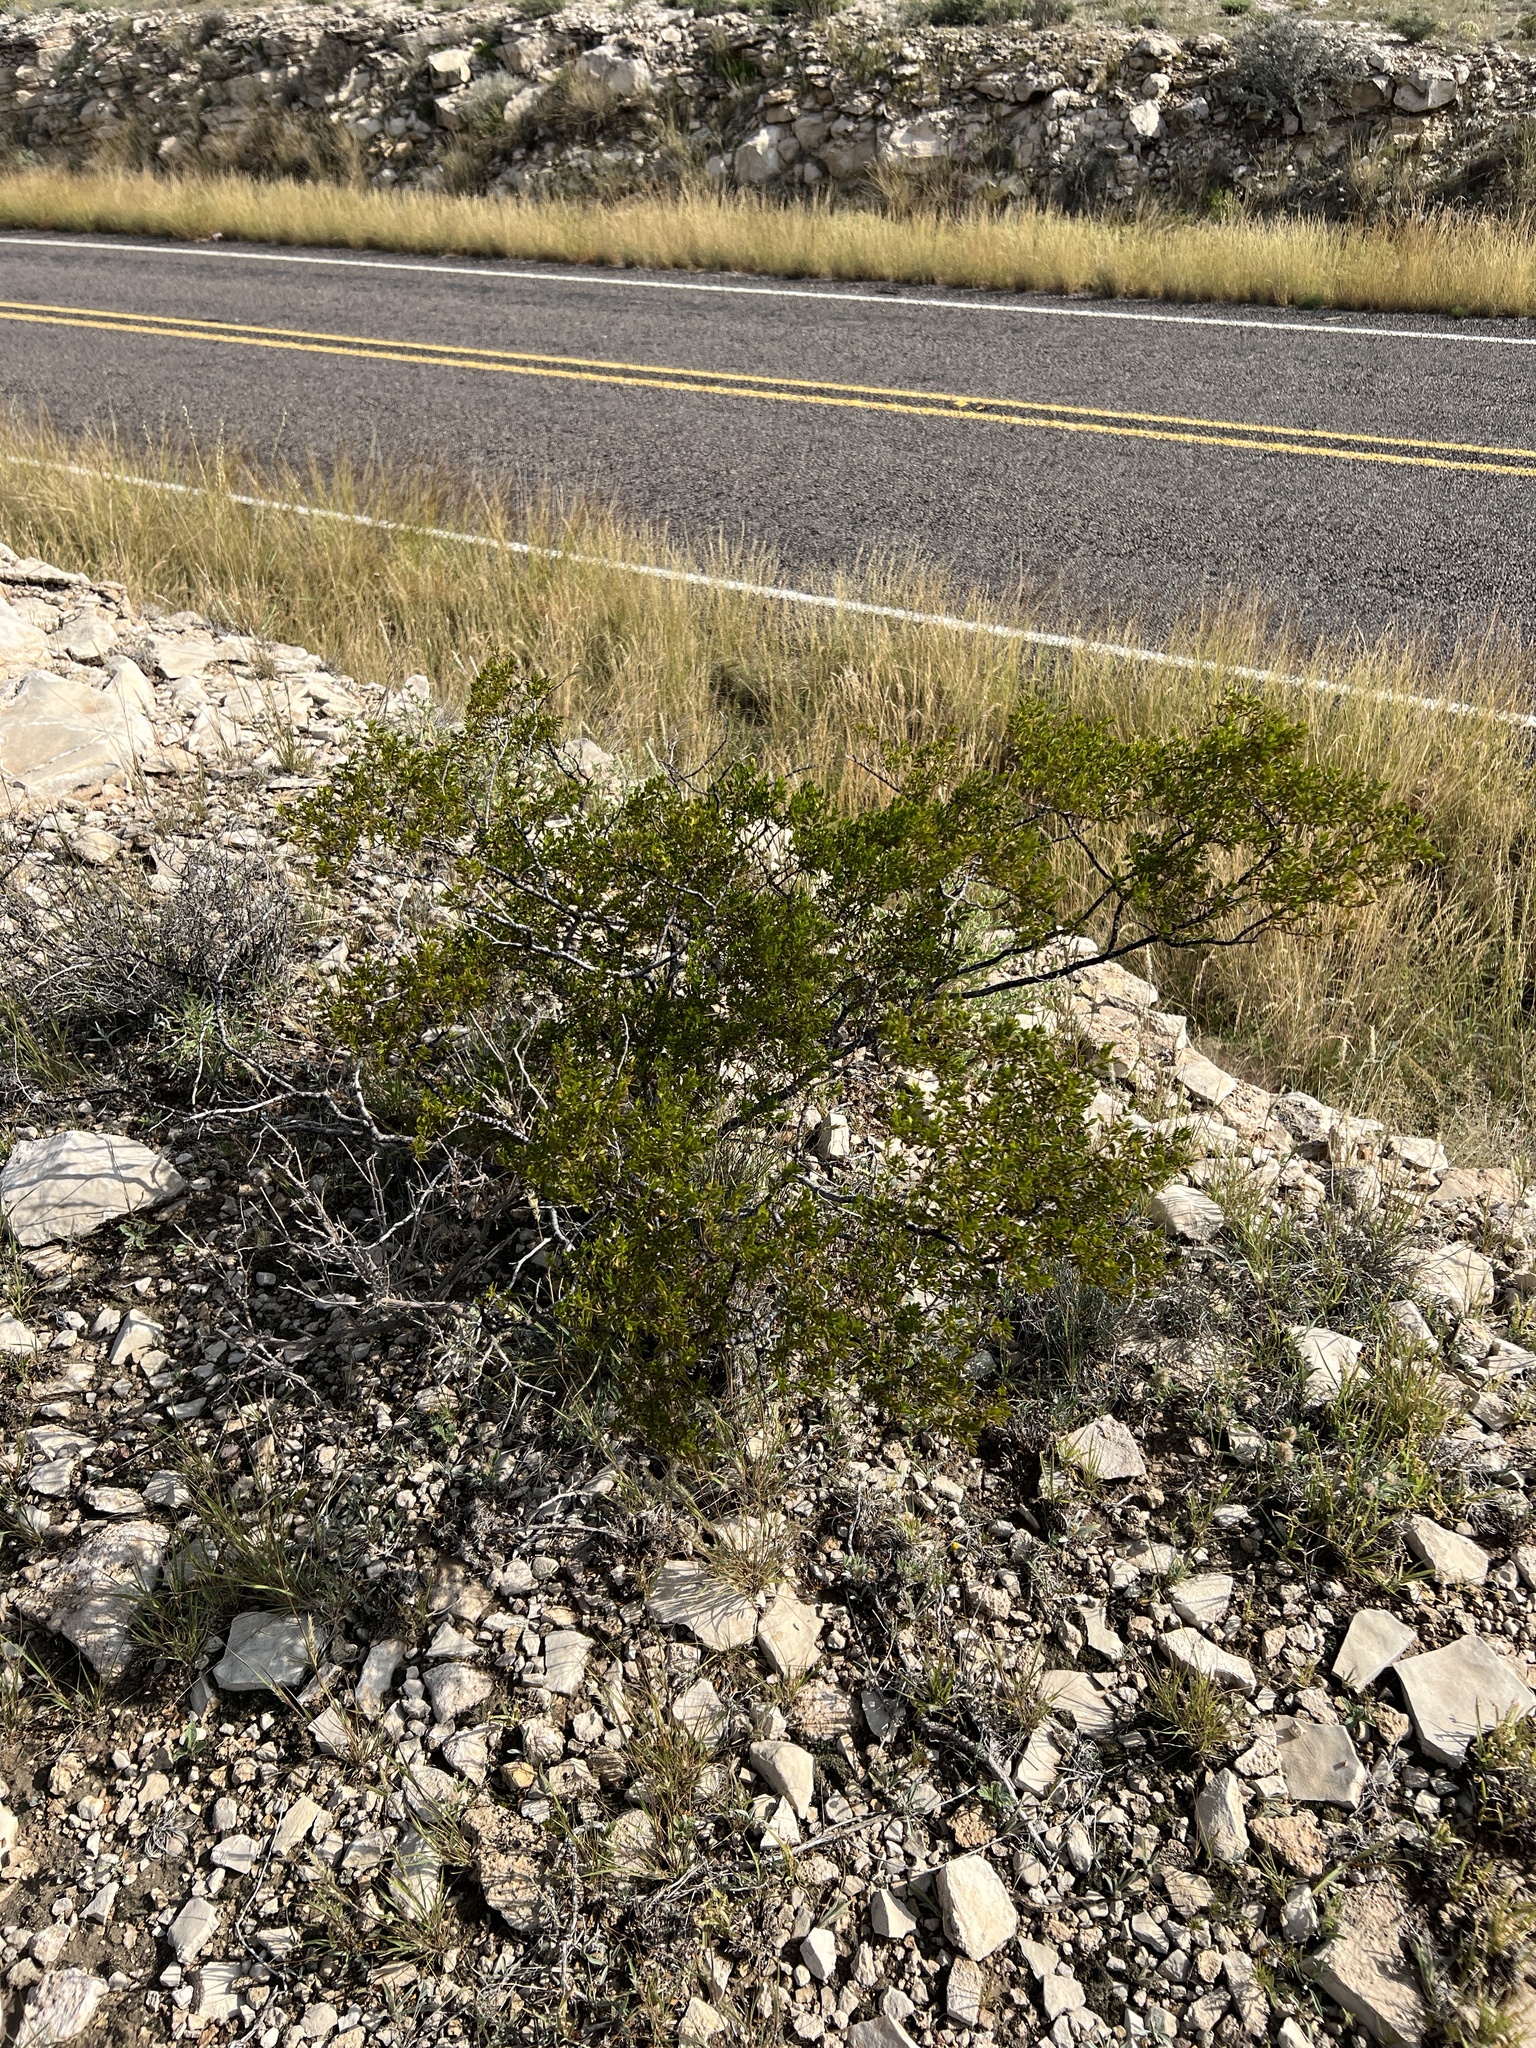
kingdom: Plantae
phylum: Tracheophyta
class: Magnoliopsida
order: Zygophyllales
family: Zygophyllaceae
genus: Larrea
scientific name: Larrea tridentata
